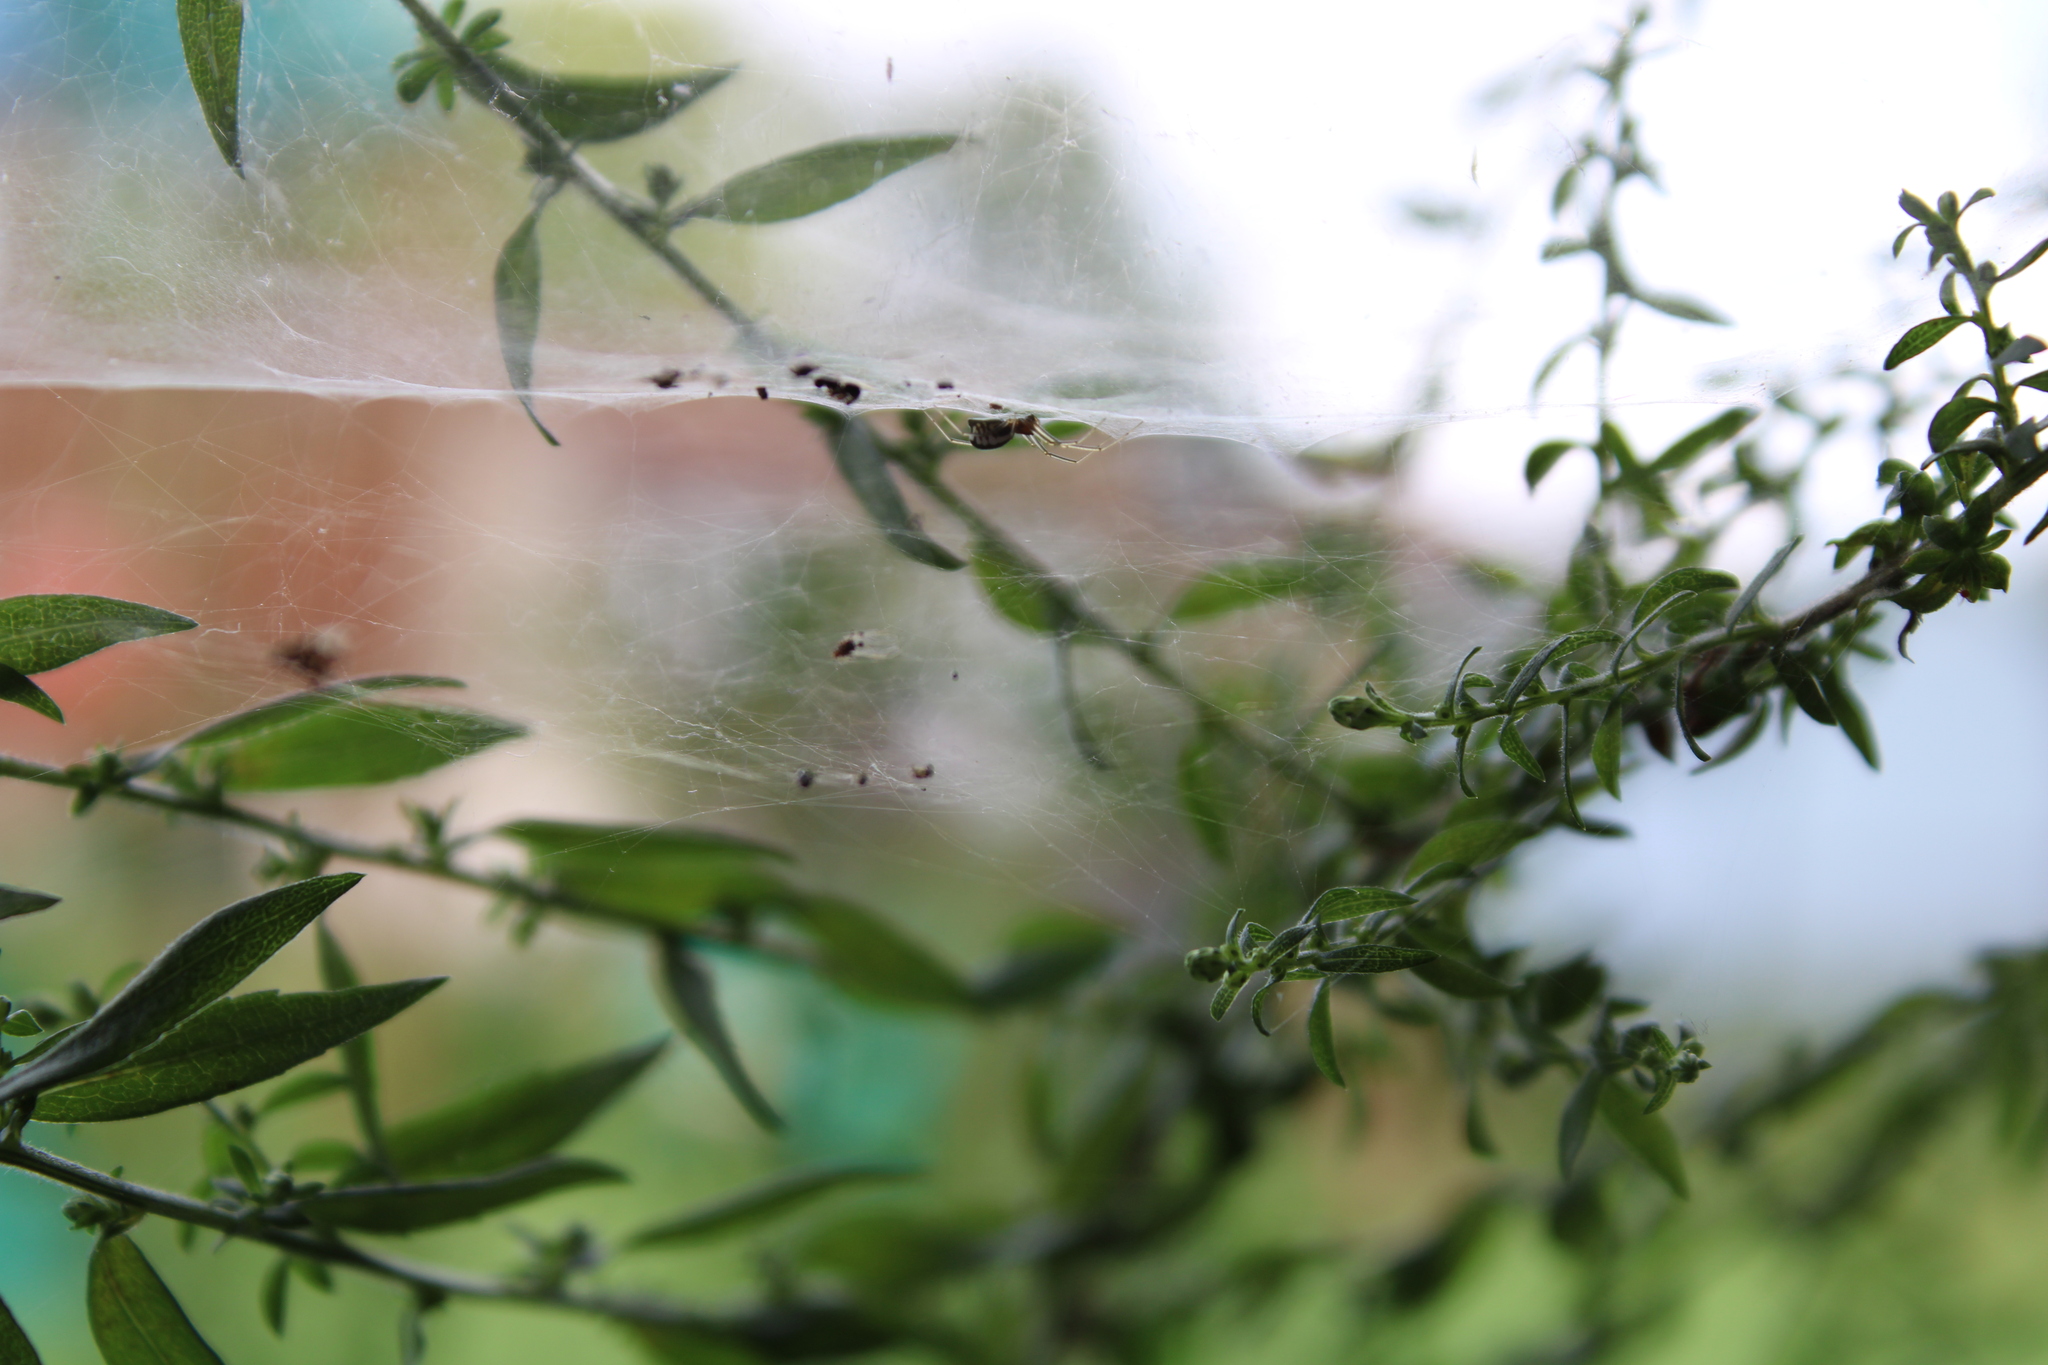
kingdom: Animalia
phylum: Arthropoda
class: Arachnida
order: Araneae
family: Linyphiidae
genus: Frontinella
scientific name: Frontinella pyramitela
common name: Bowl-and-doily spider
